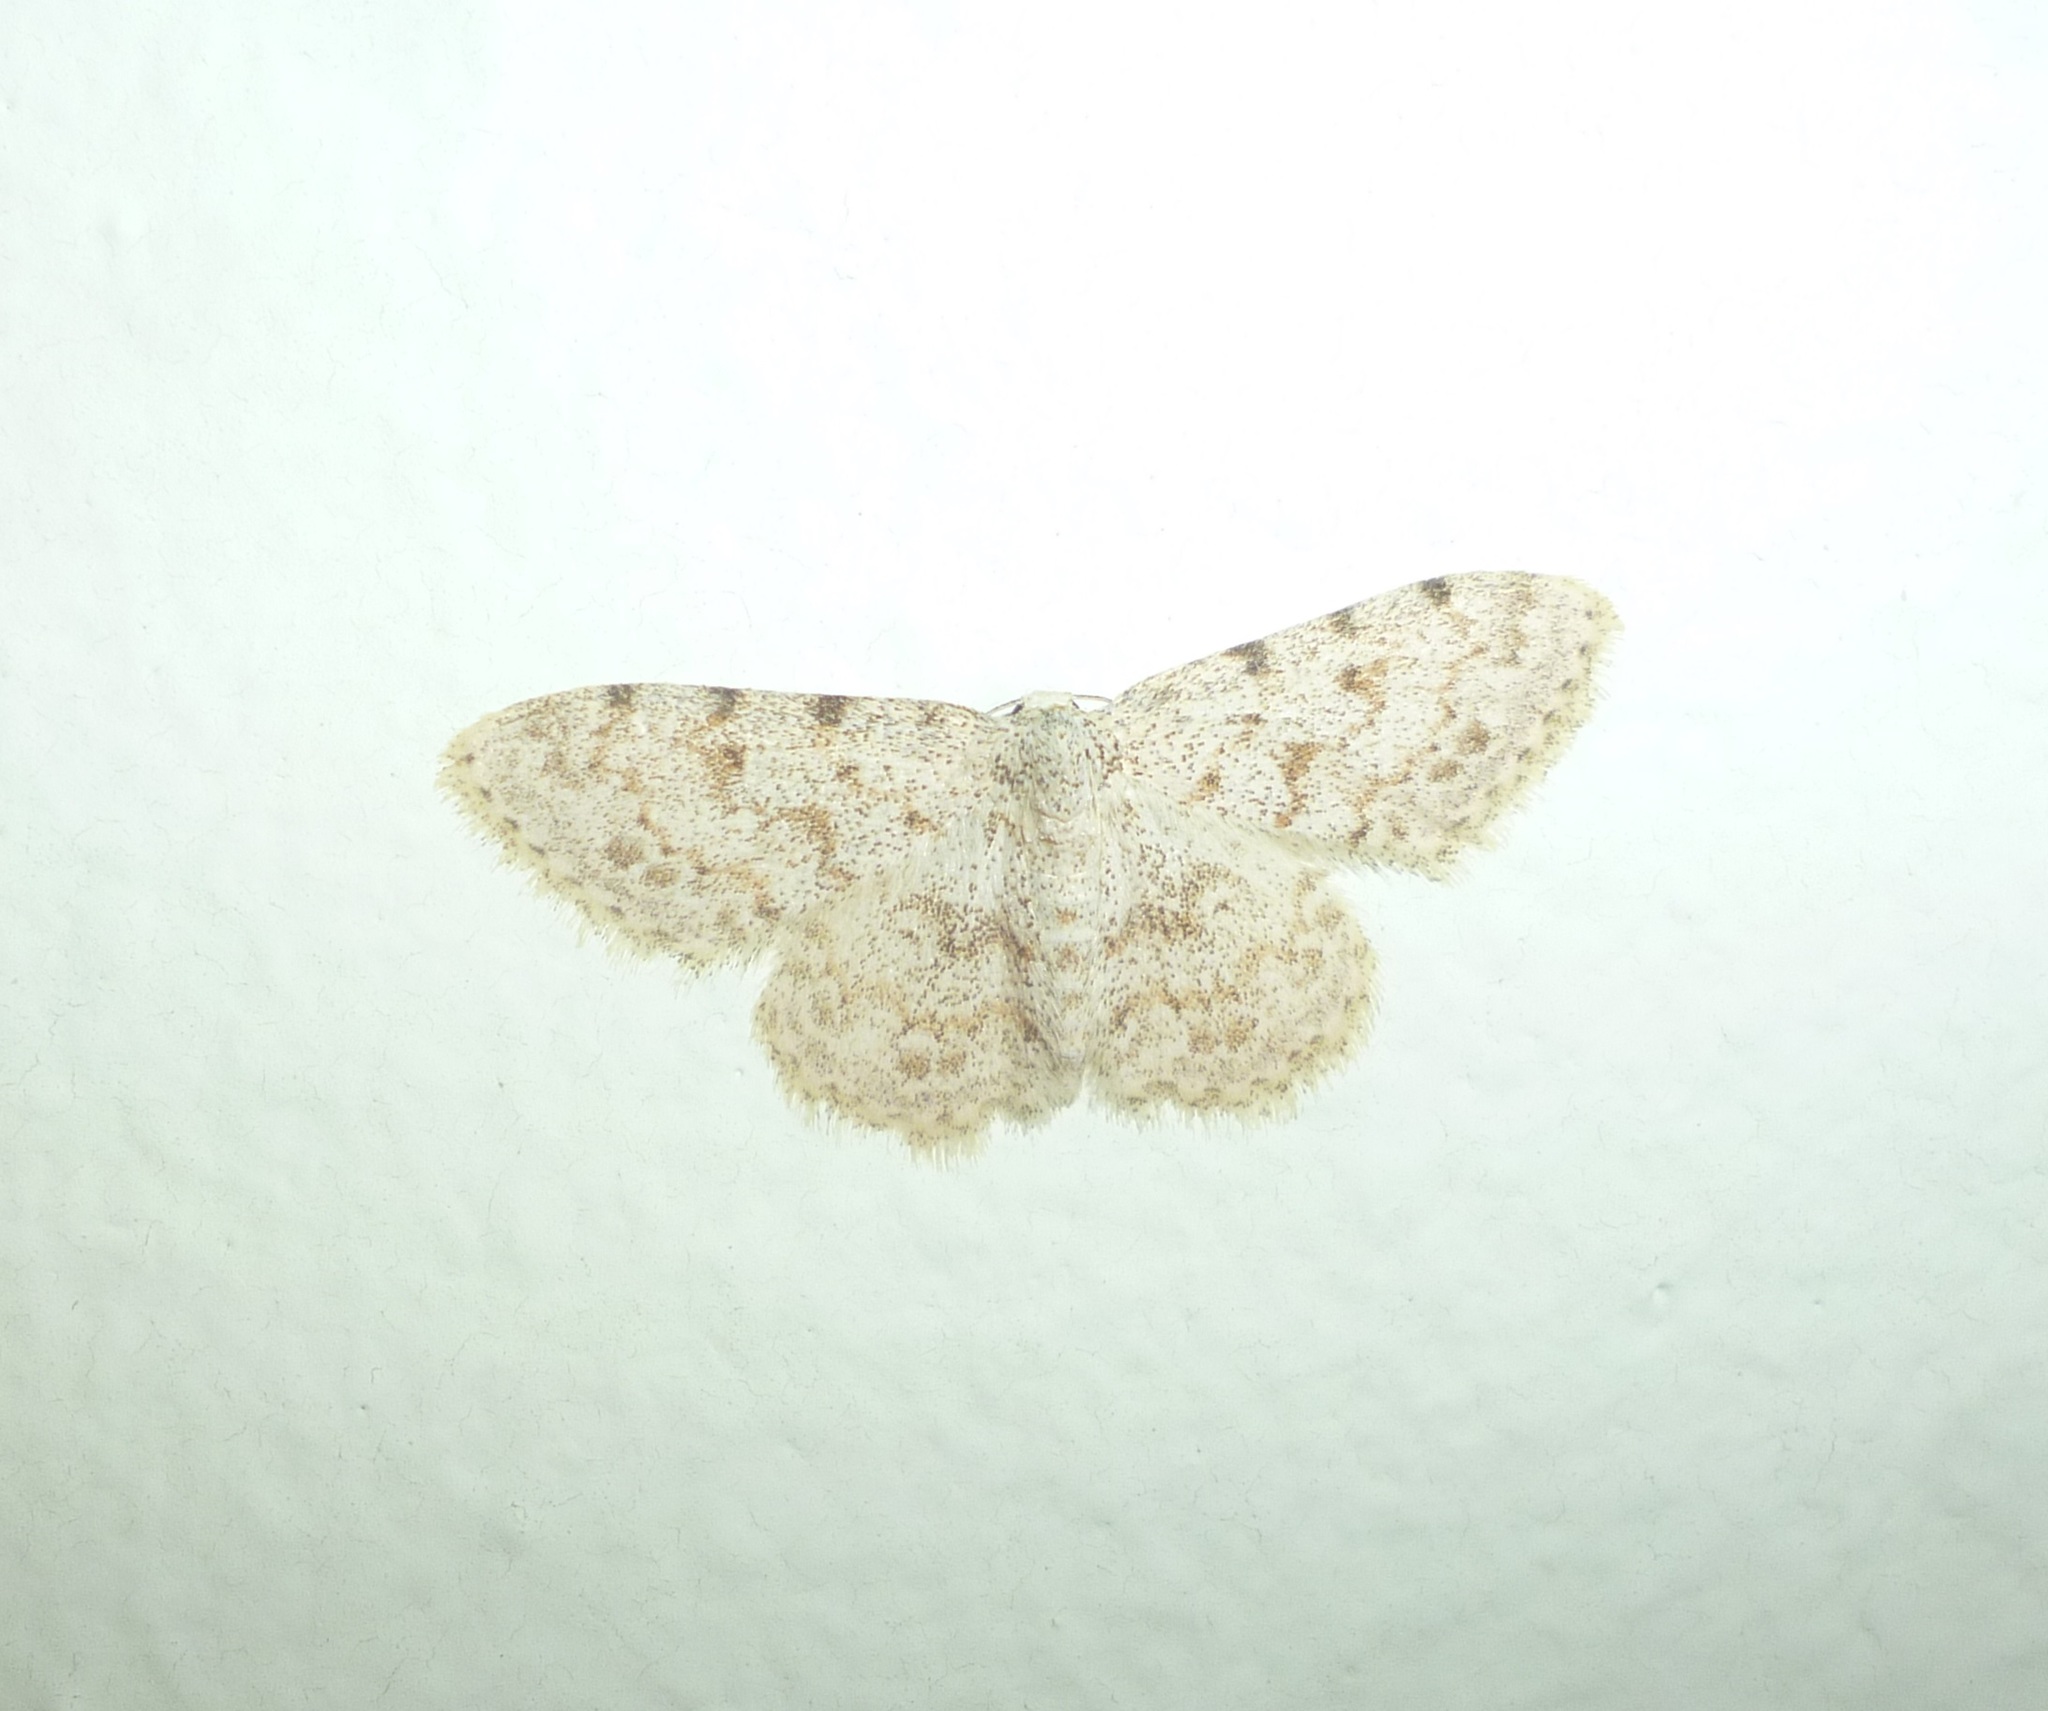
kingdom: Animalia
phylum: Arthropoda
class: Insecta
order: Lepidoptera
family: Geometridae
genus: Scopula
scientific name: Scopula luridata
